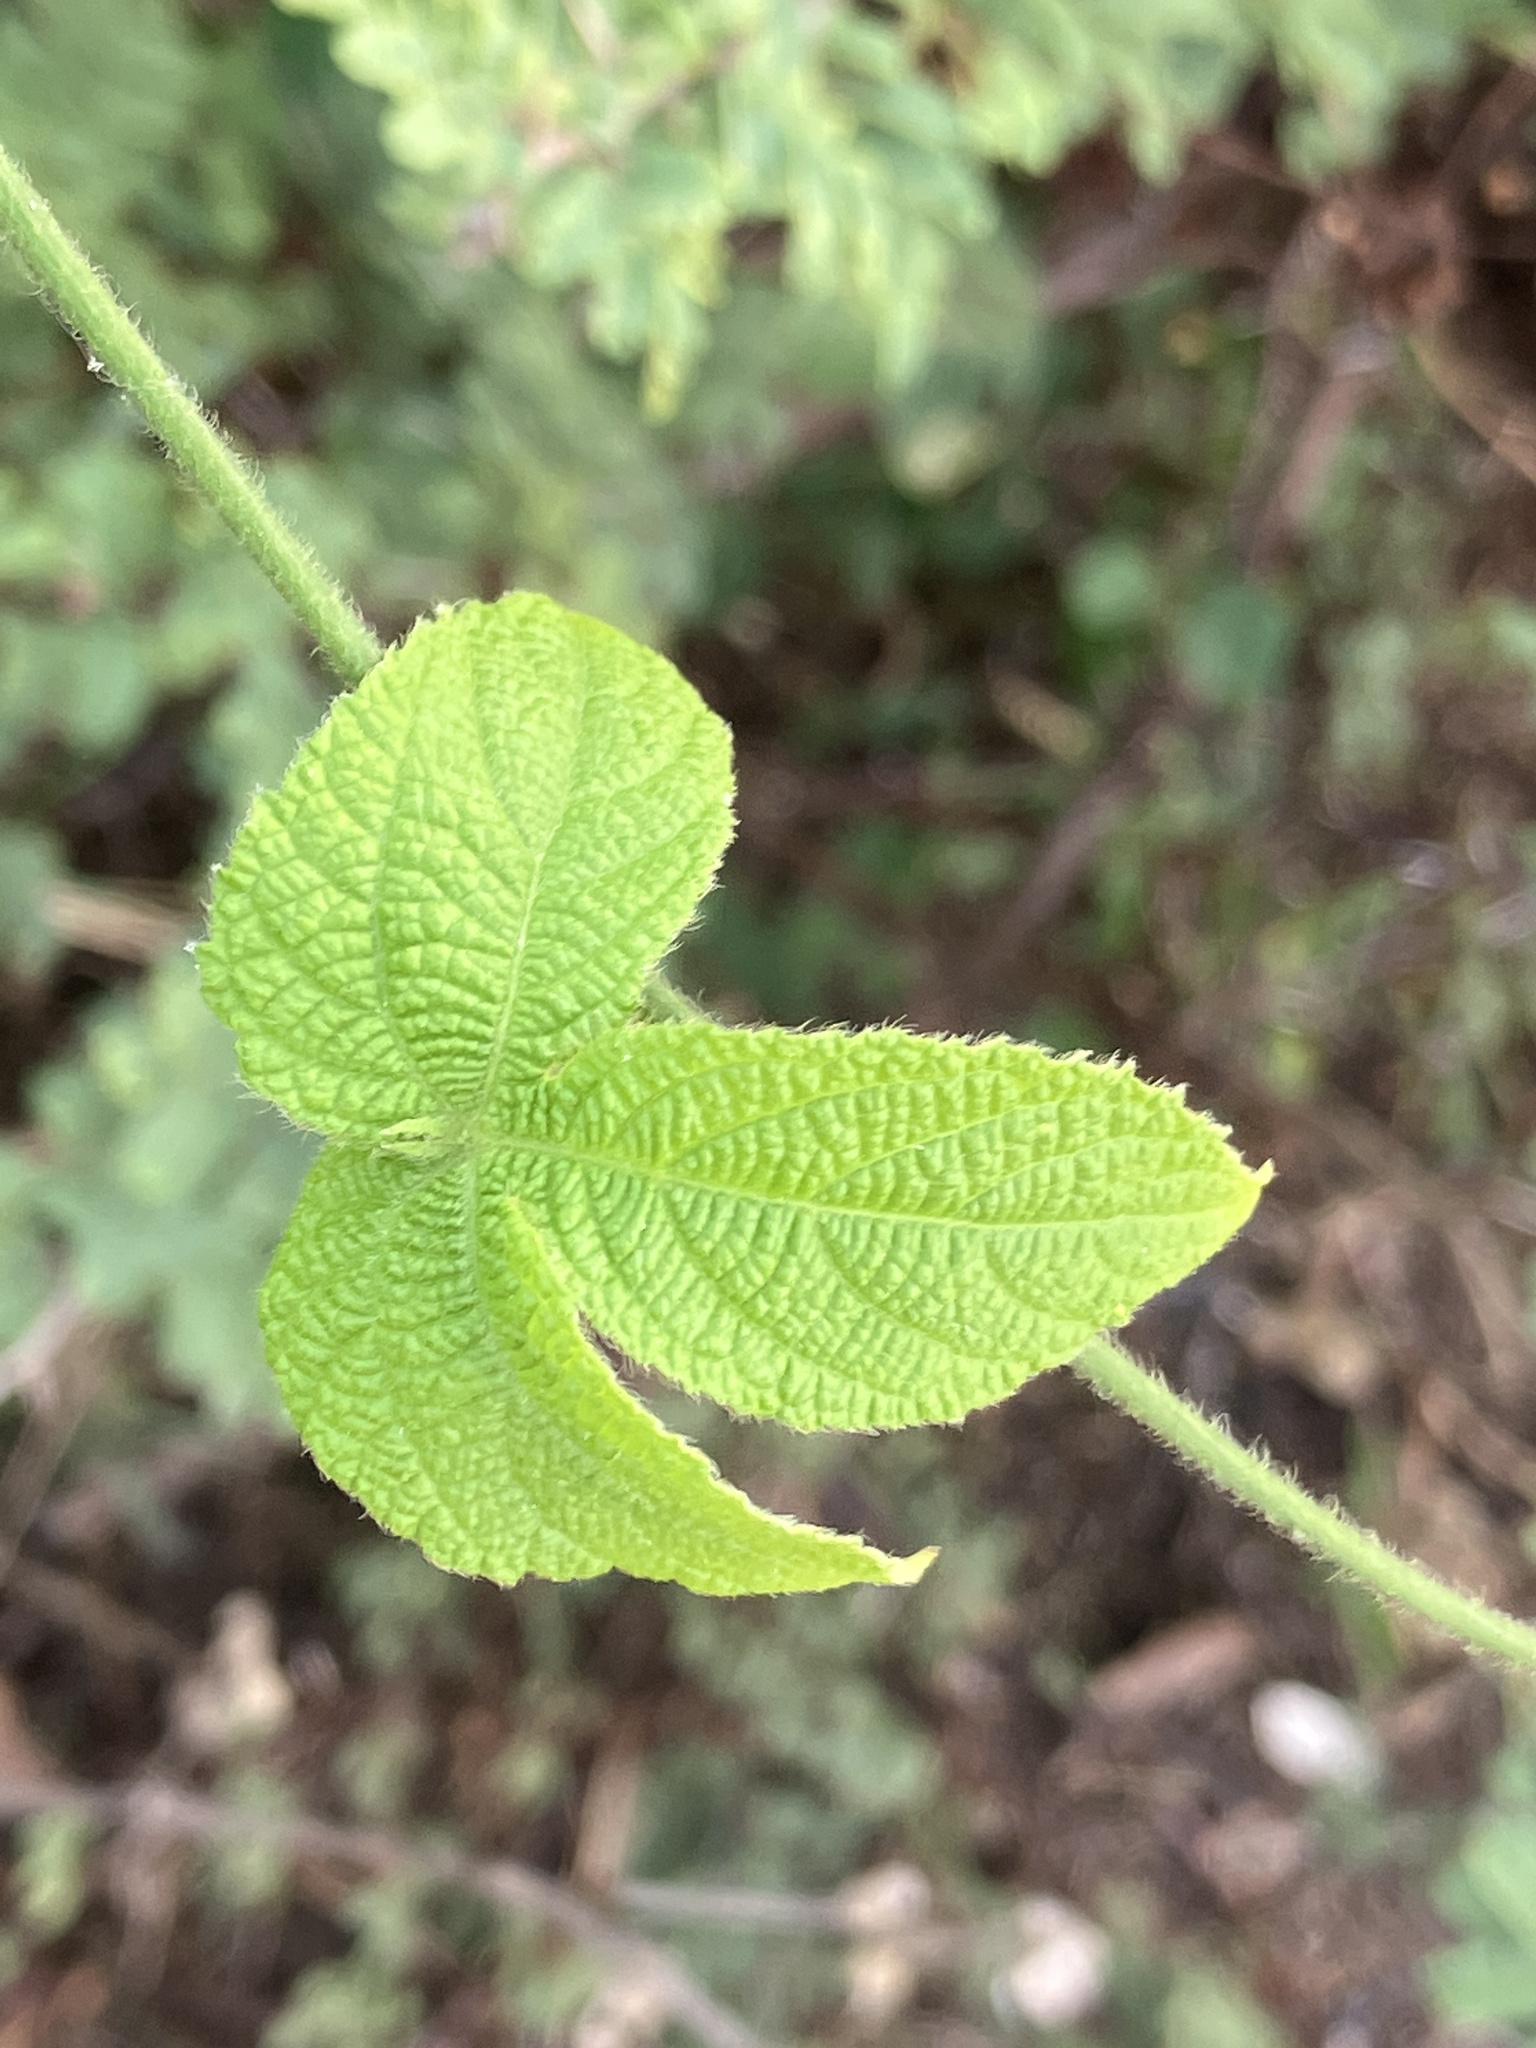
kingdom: Plantae
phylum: Tracheophyta
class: Magnoliopsida
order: Malpighiales
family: Euphorbiaceae
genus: Dalechampia
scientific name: Dalechampia scandens
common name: Spurgecreeper
